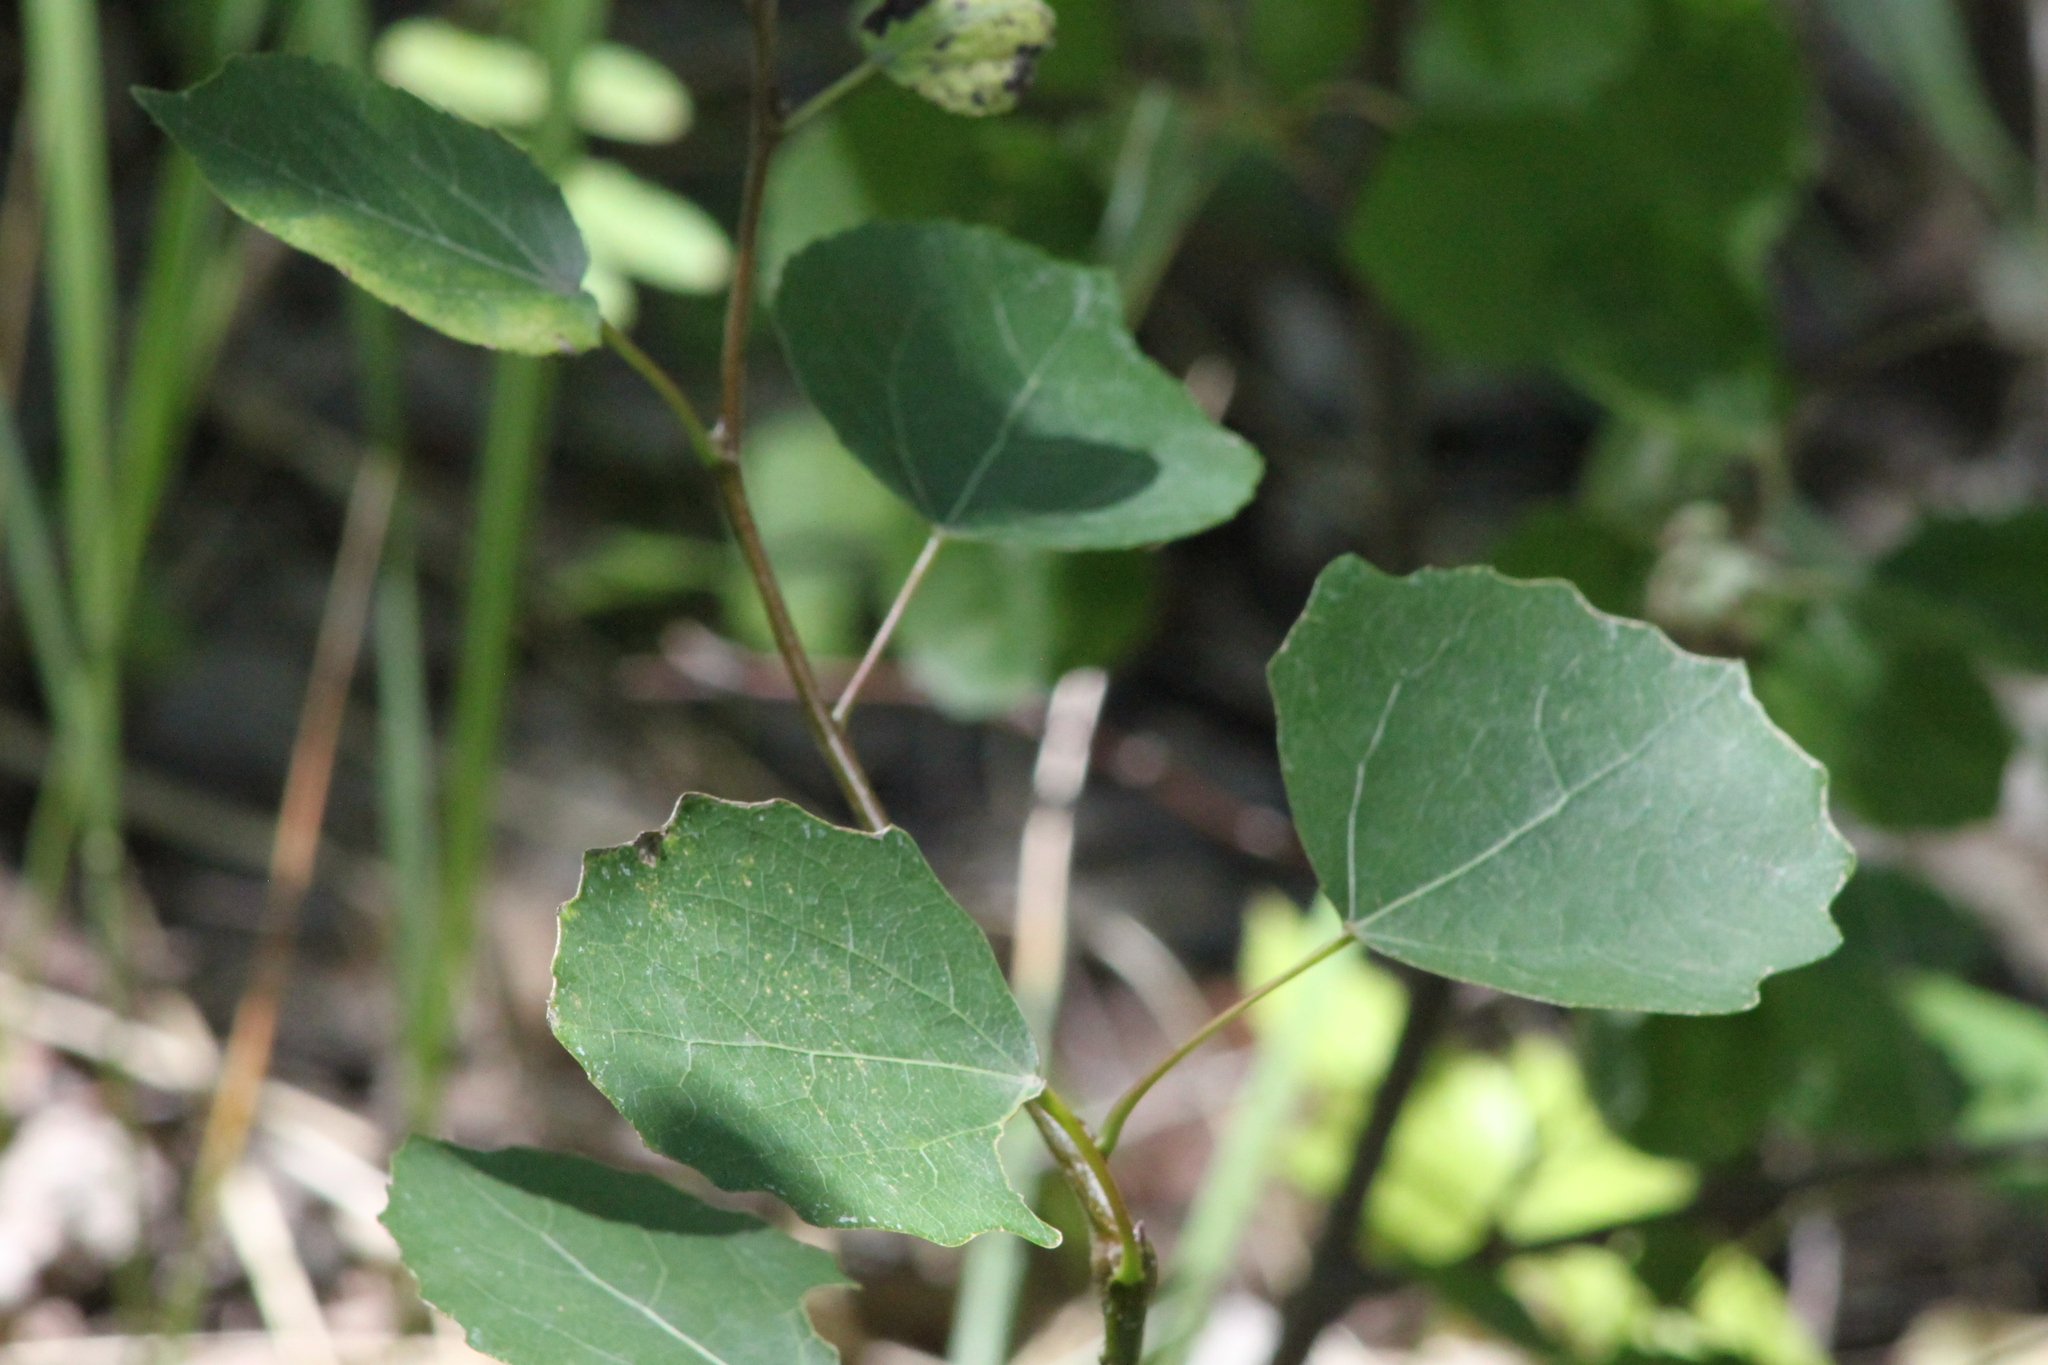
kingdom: Plantae
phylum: Tracheophyta
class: Magnoliopsida
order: Malpighiales
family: Salicaceae
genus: Populus
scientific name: Populus tremula
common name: European aspen
